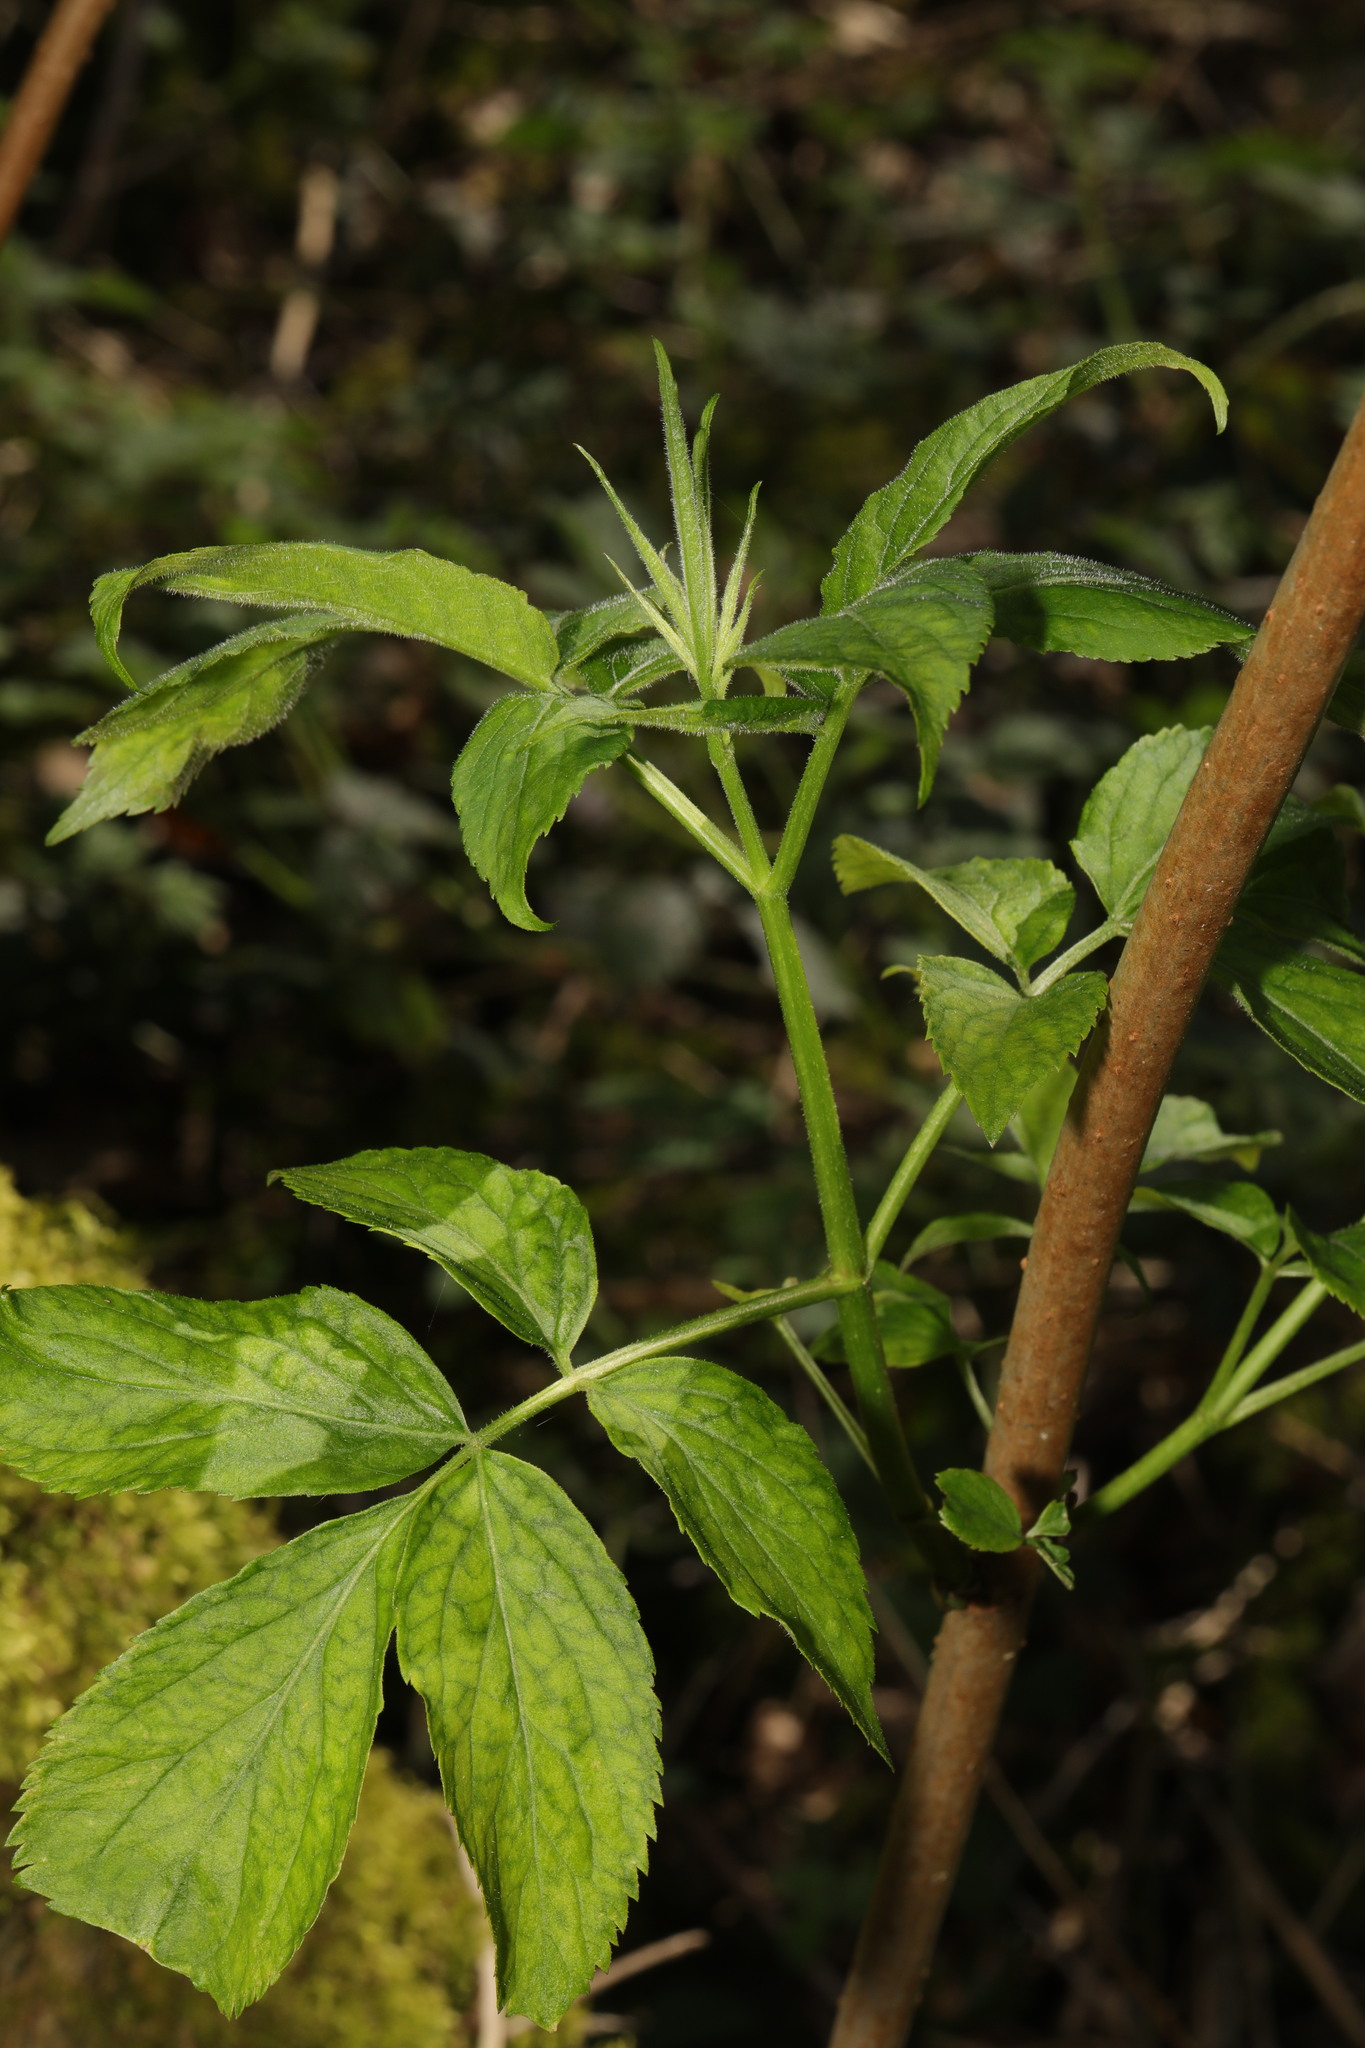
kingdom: Plantae
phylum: Tracheophyta
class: Magnoliopsida
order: Dipsacales
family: Viburnaceae
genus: Sambucus
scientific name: Sambucus nigra
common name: Elder
